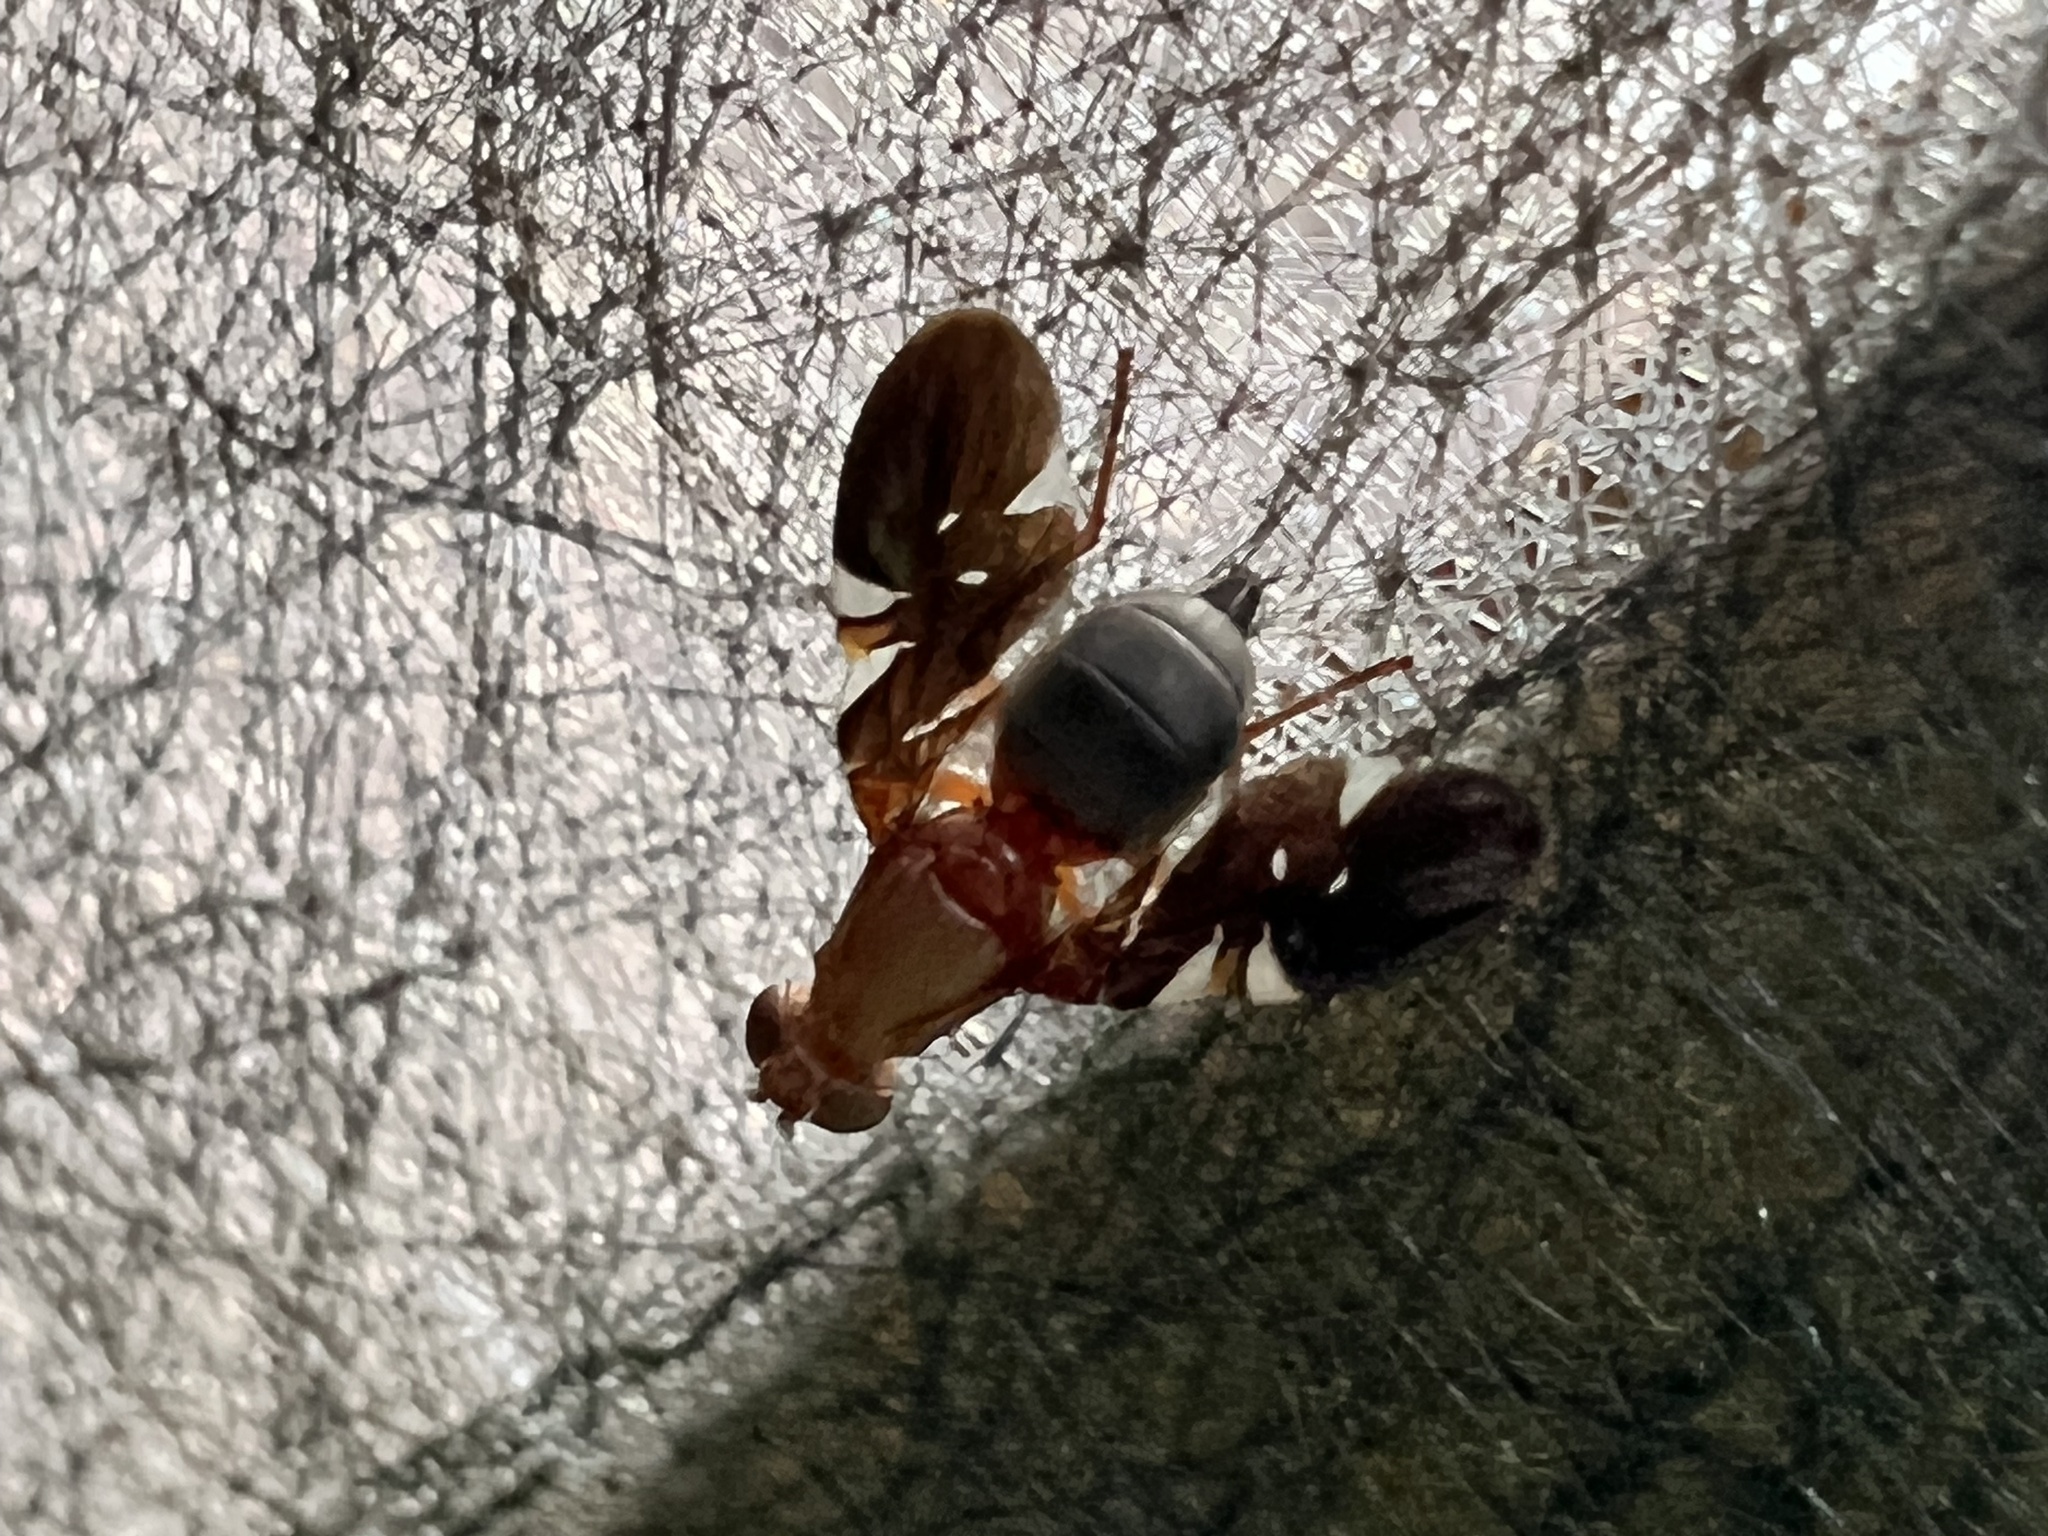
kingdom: Animalia
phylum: Arthropoda
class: Insecta
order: Diptera
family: Ulidiidae
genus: Delphinia
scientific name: Delphinia picta
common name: Common picture-winged fly
